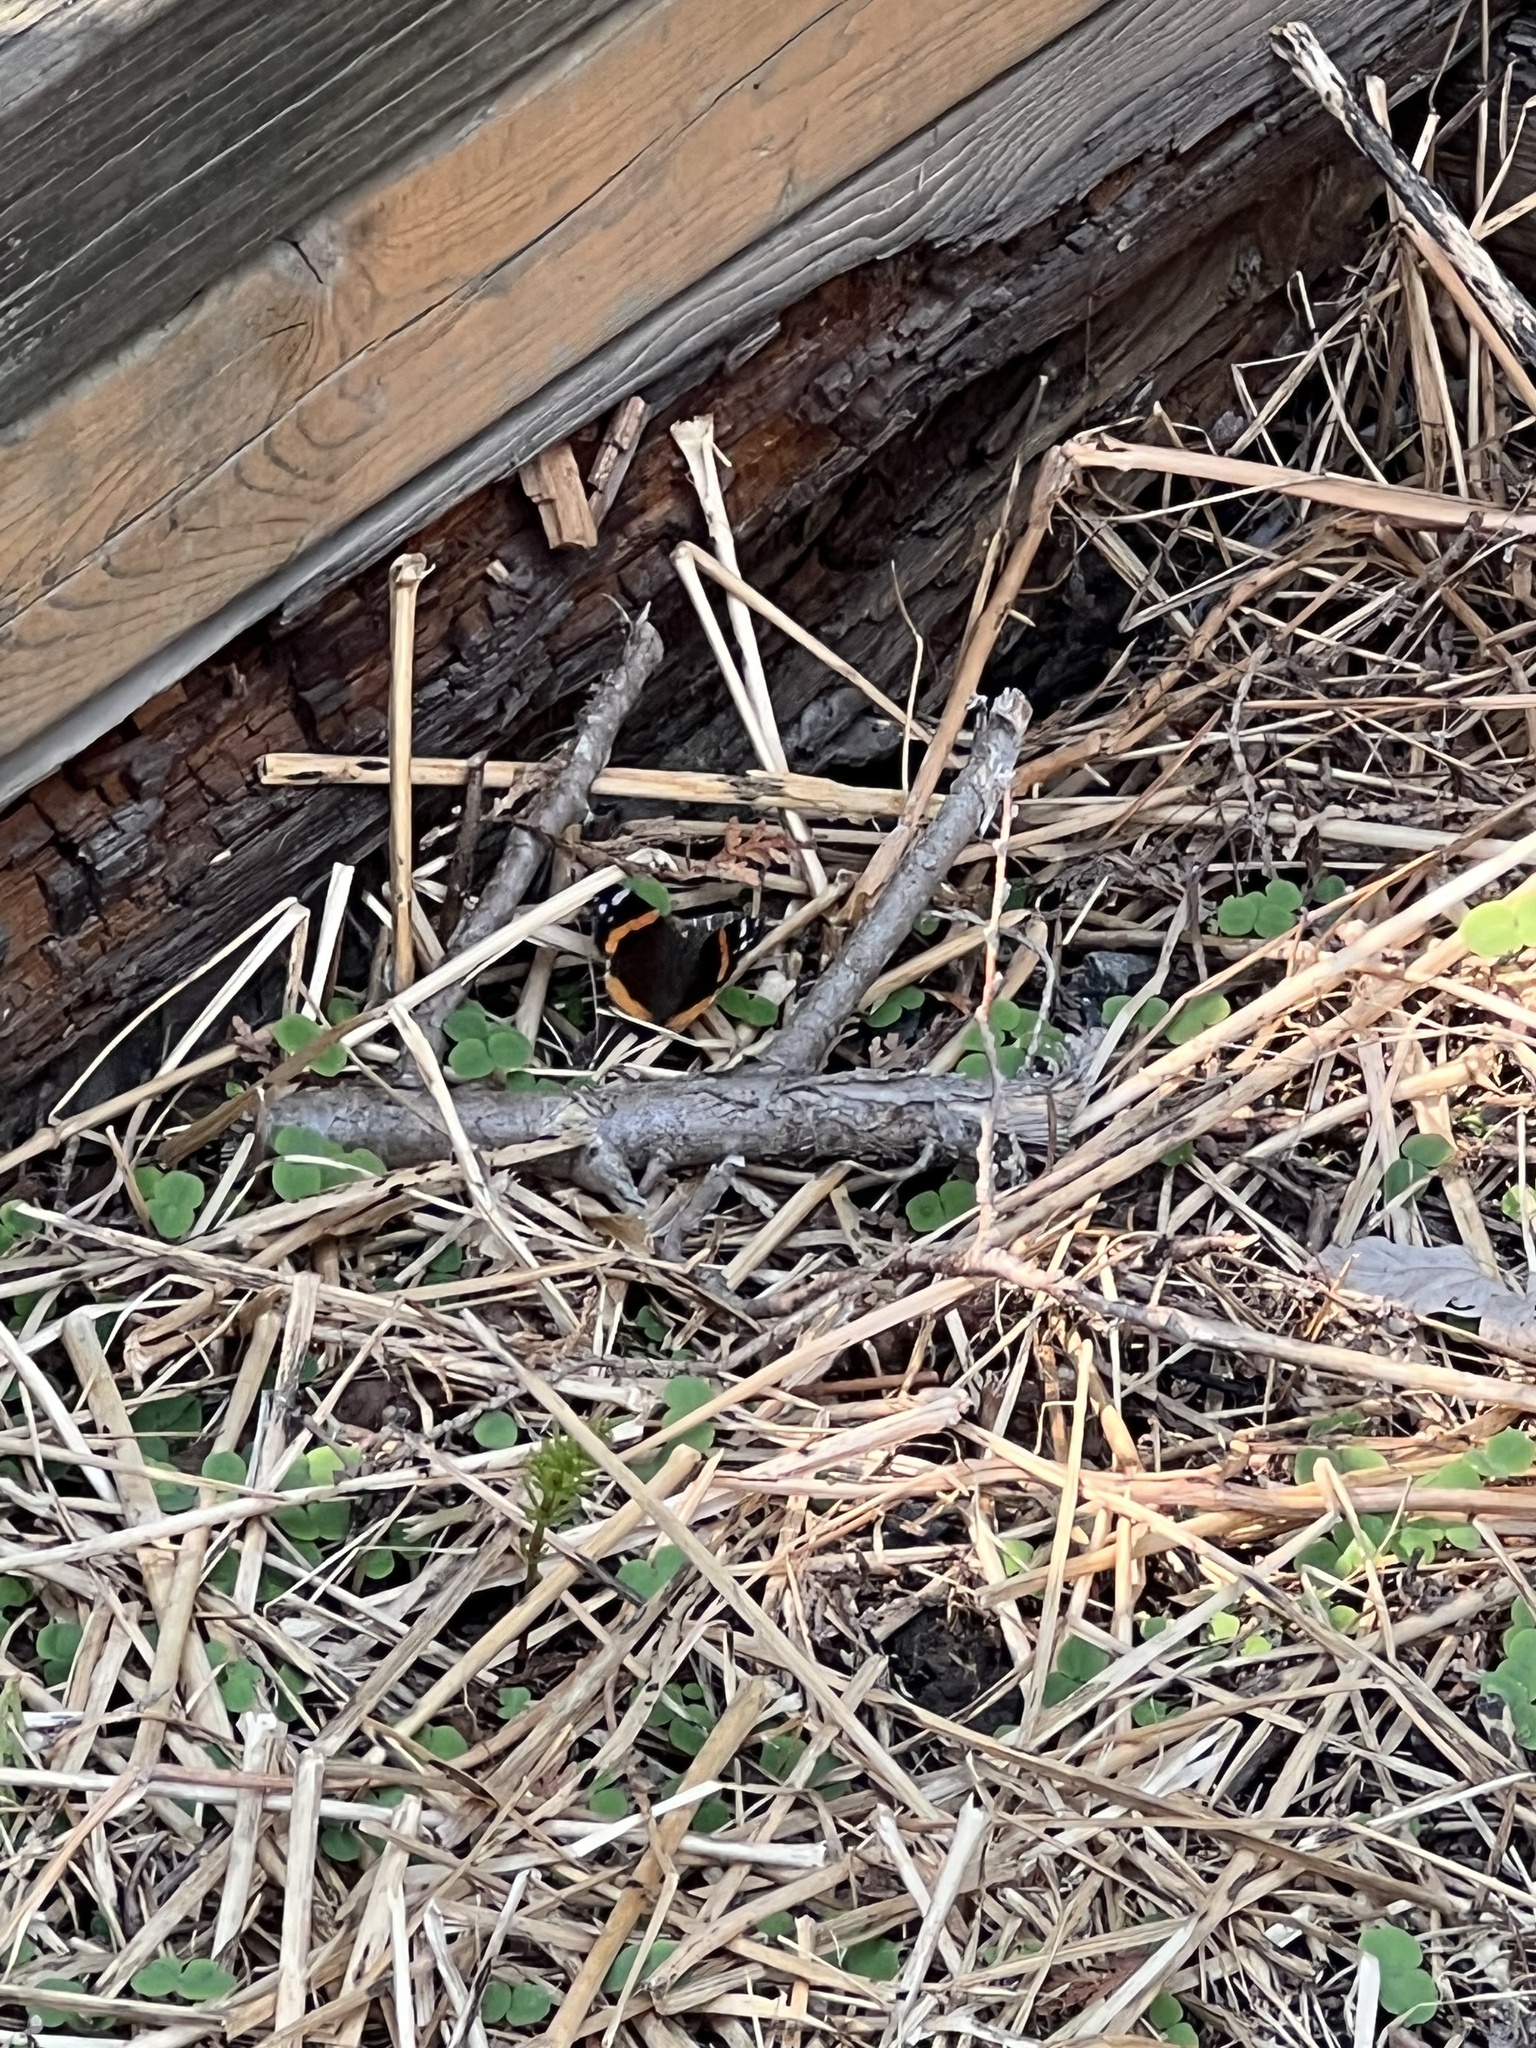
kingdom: Animalia
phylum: Arthropoda
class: Insecta
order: Lepidoptera
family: Nymphalidae
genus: Vanessa
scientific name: Vanessa atalanta
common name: Red admiral
